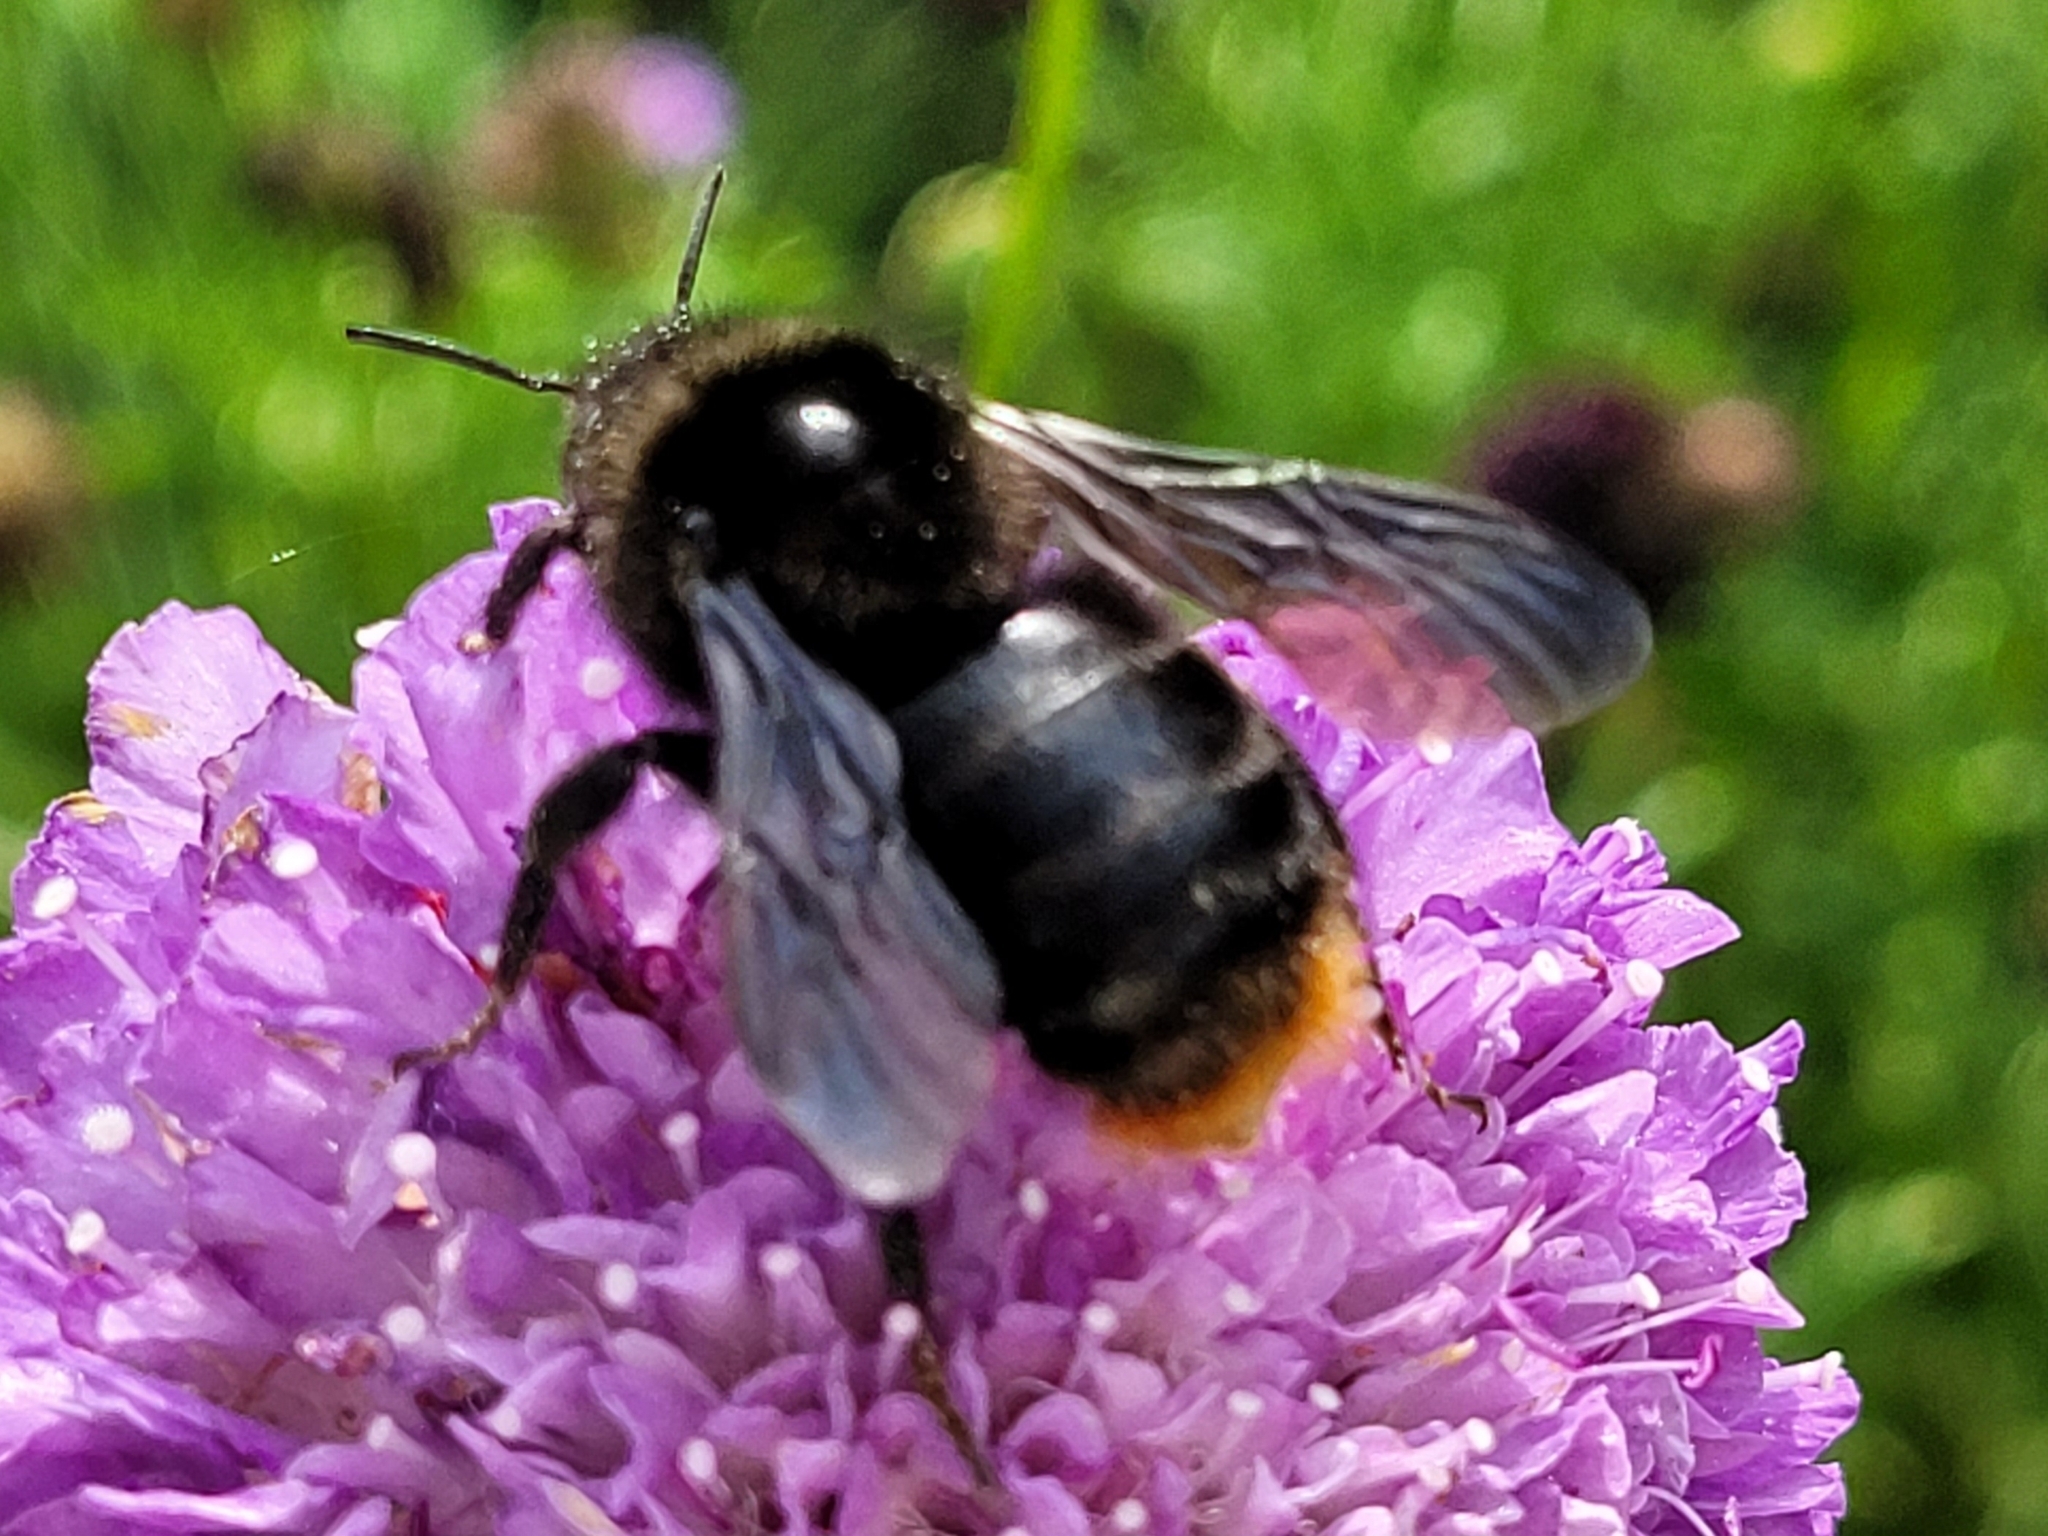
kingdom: Animalia
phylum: Arthropoda
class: Insecta
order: Hymenoptera
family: Apidae
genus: Bombus
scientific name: Bombus rupestris
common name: Hill cuckoo-bee
